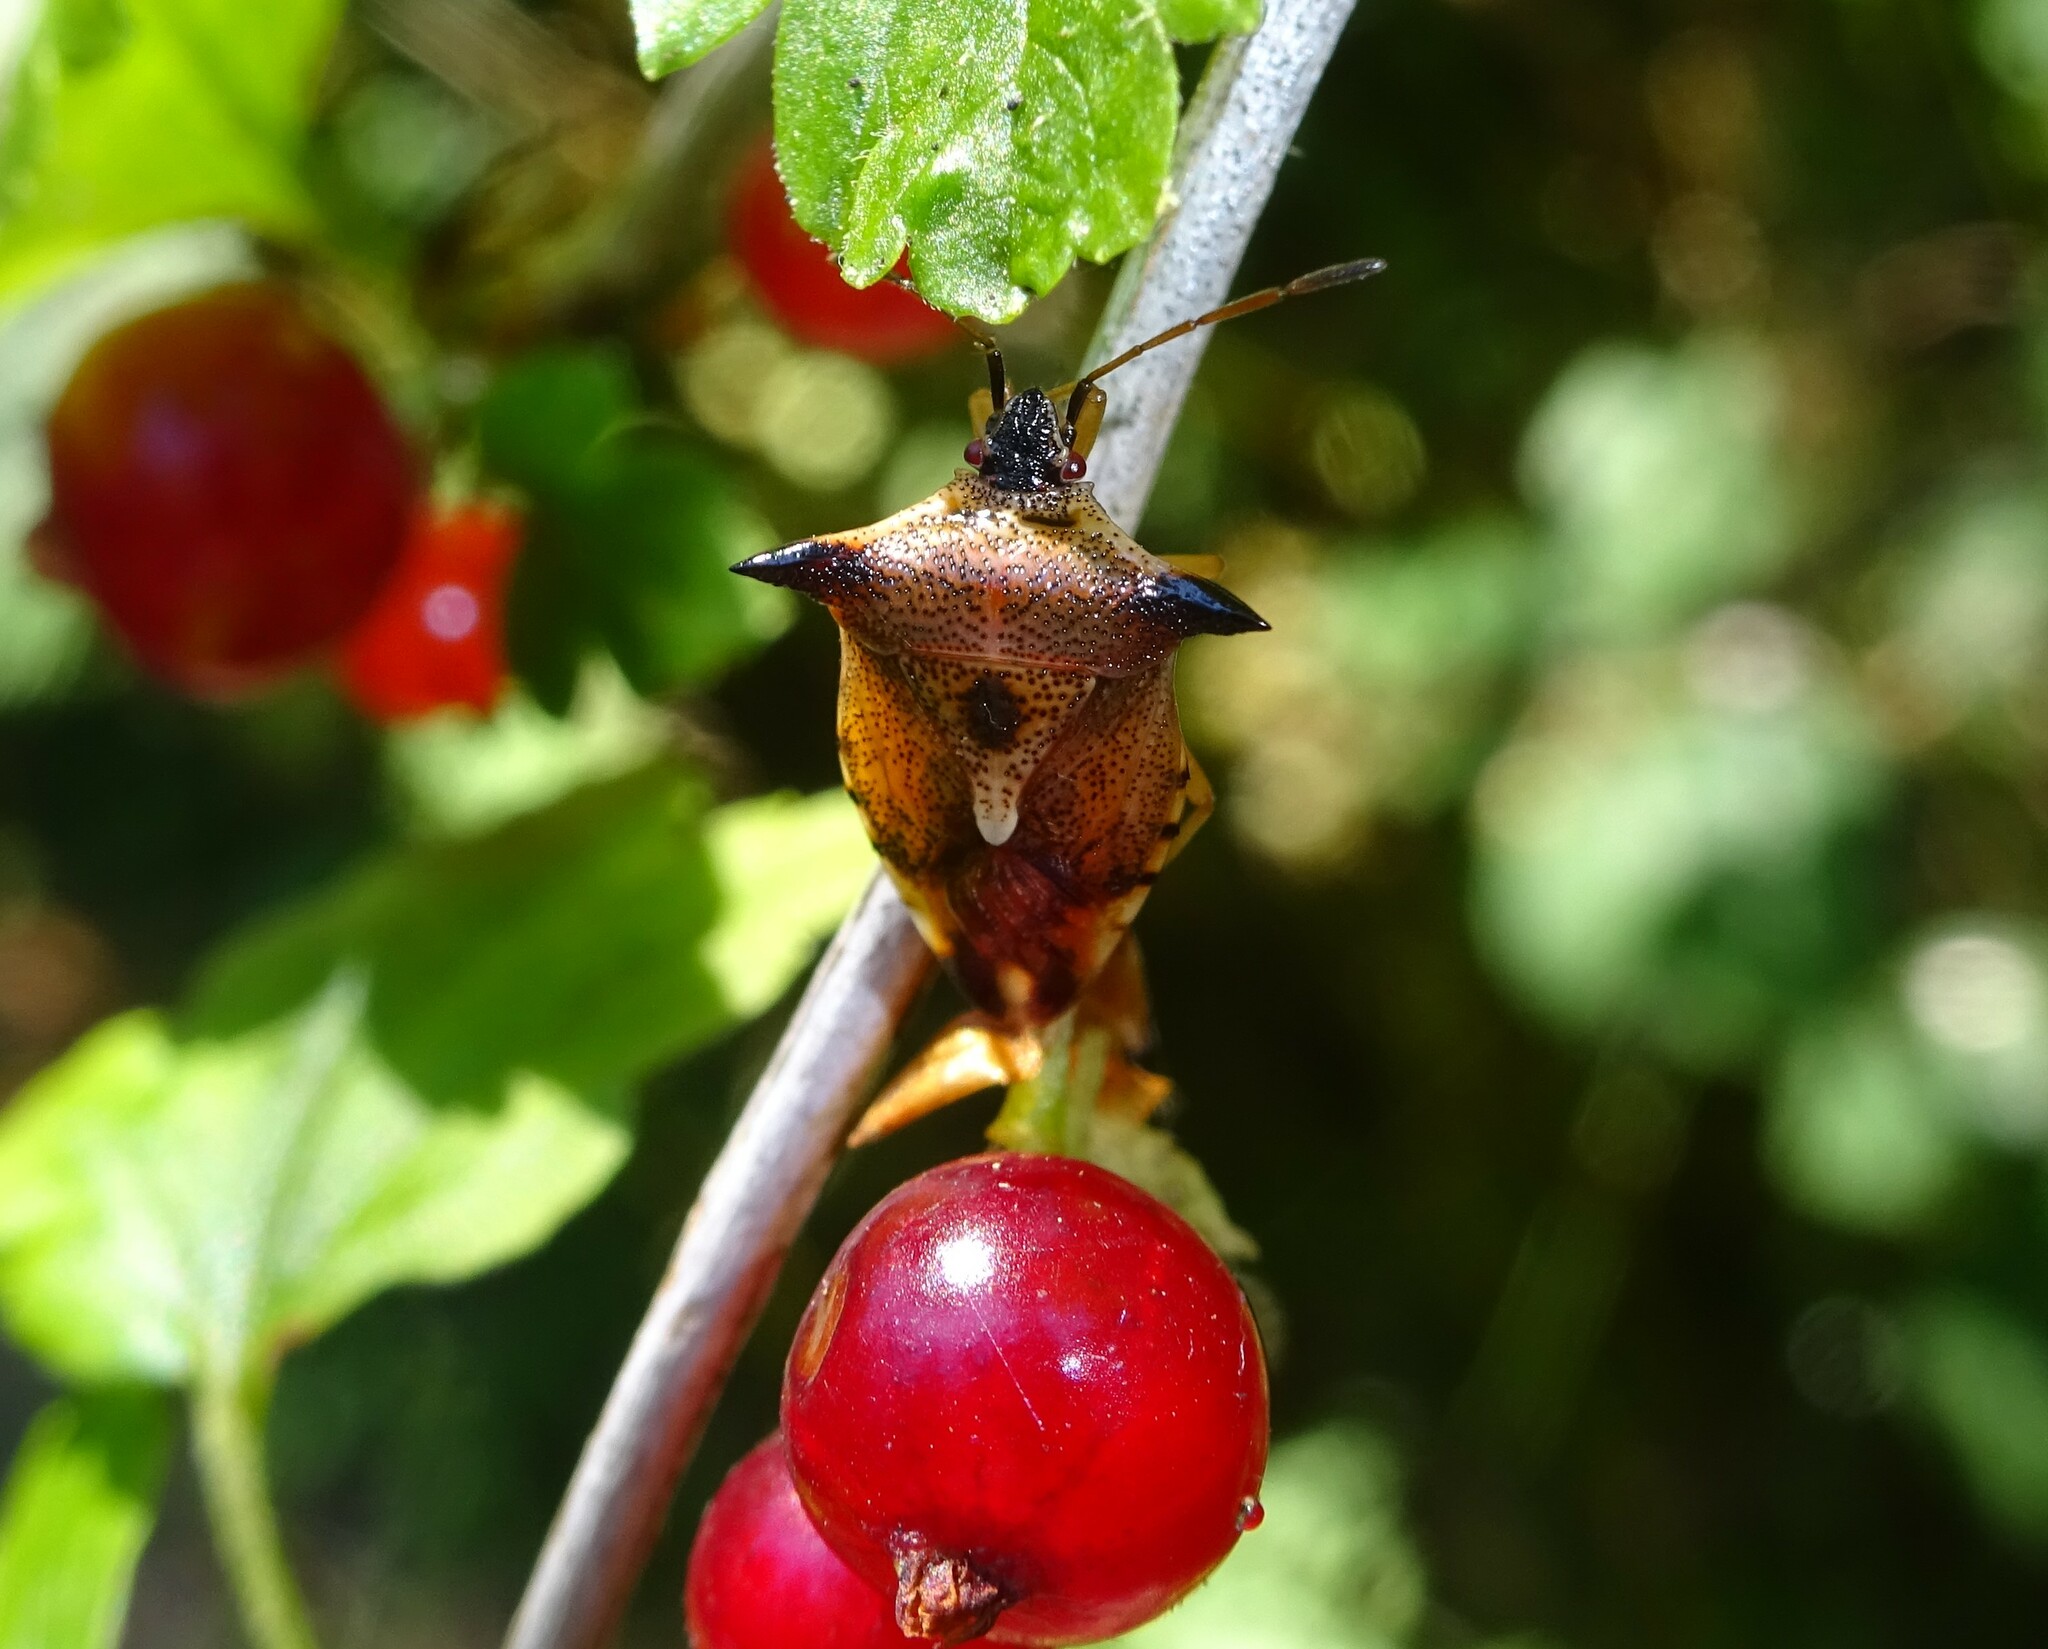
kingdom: Animalia
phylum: Arthropoda
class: Insecta
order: Hemiptera
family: Acanthosomatidae
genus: Elasmucha
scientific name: Elasmucha ferrugata
